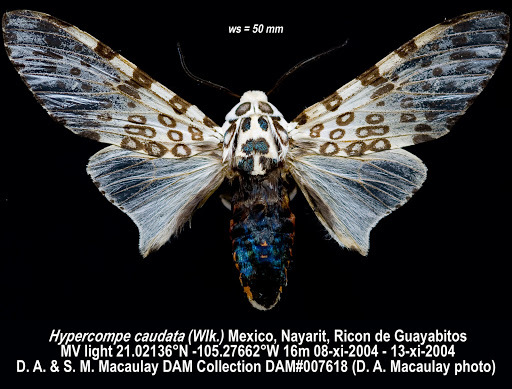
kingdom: Animalia
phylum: Arthropoda
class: Insecta
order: Lepidoptera
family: Erebidae
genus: Hypercompe
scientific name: Hypercompe caudata
